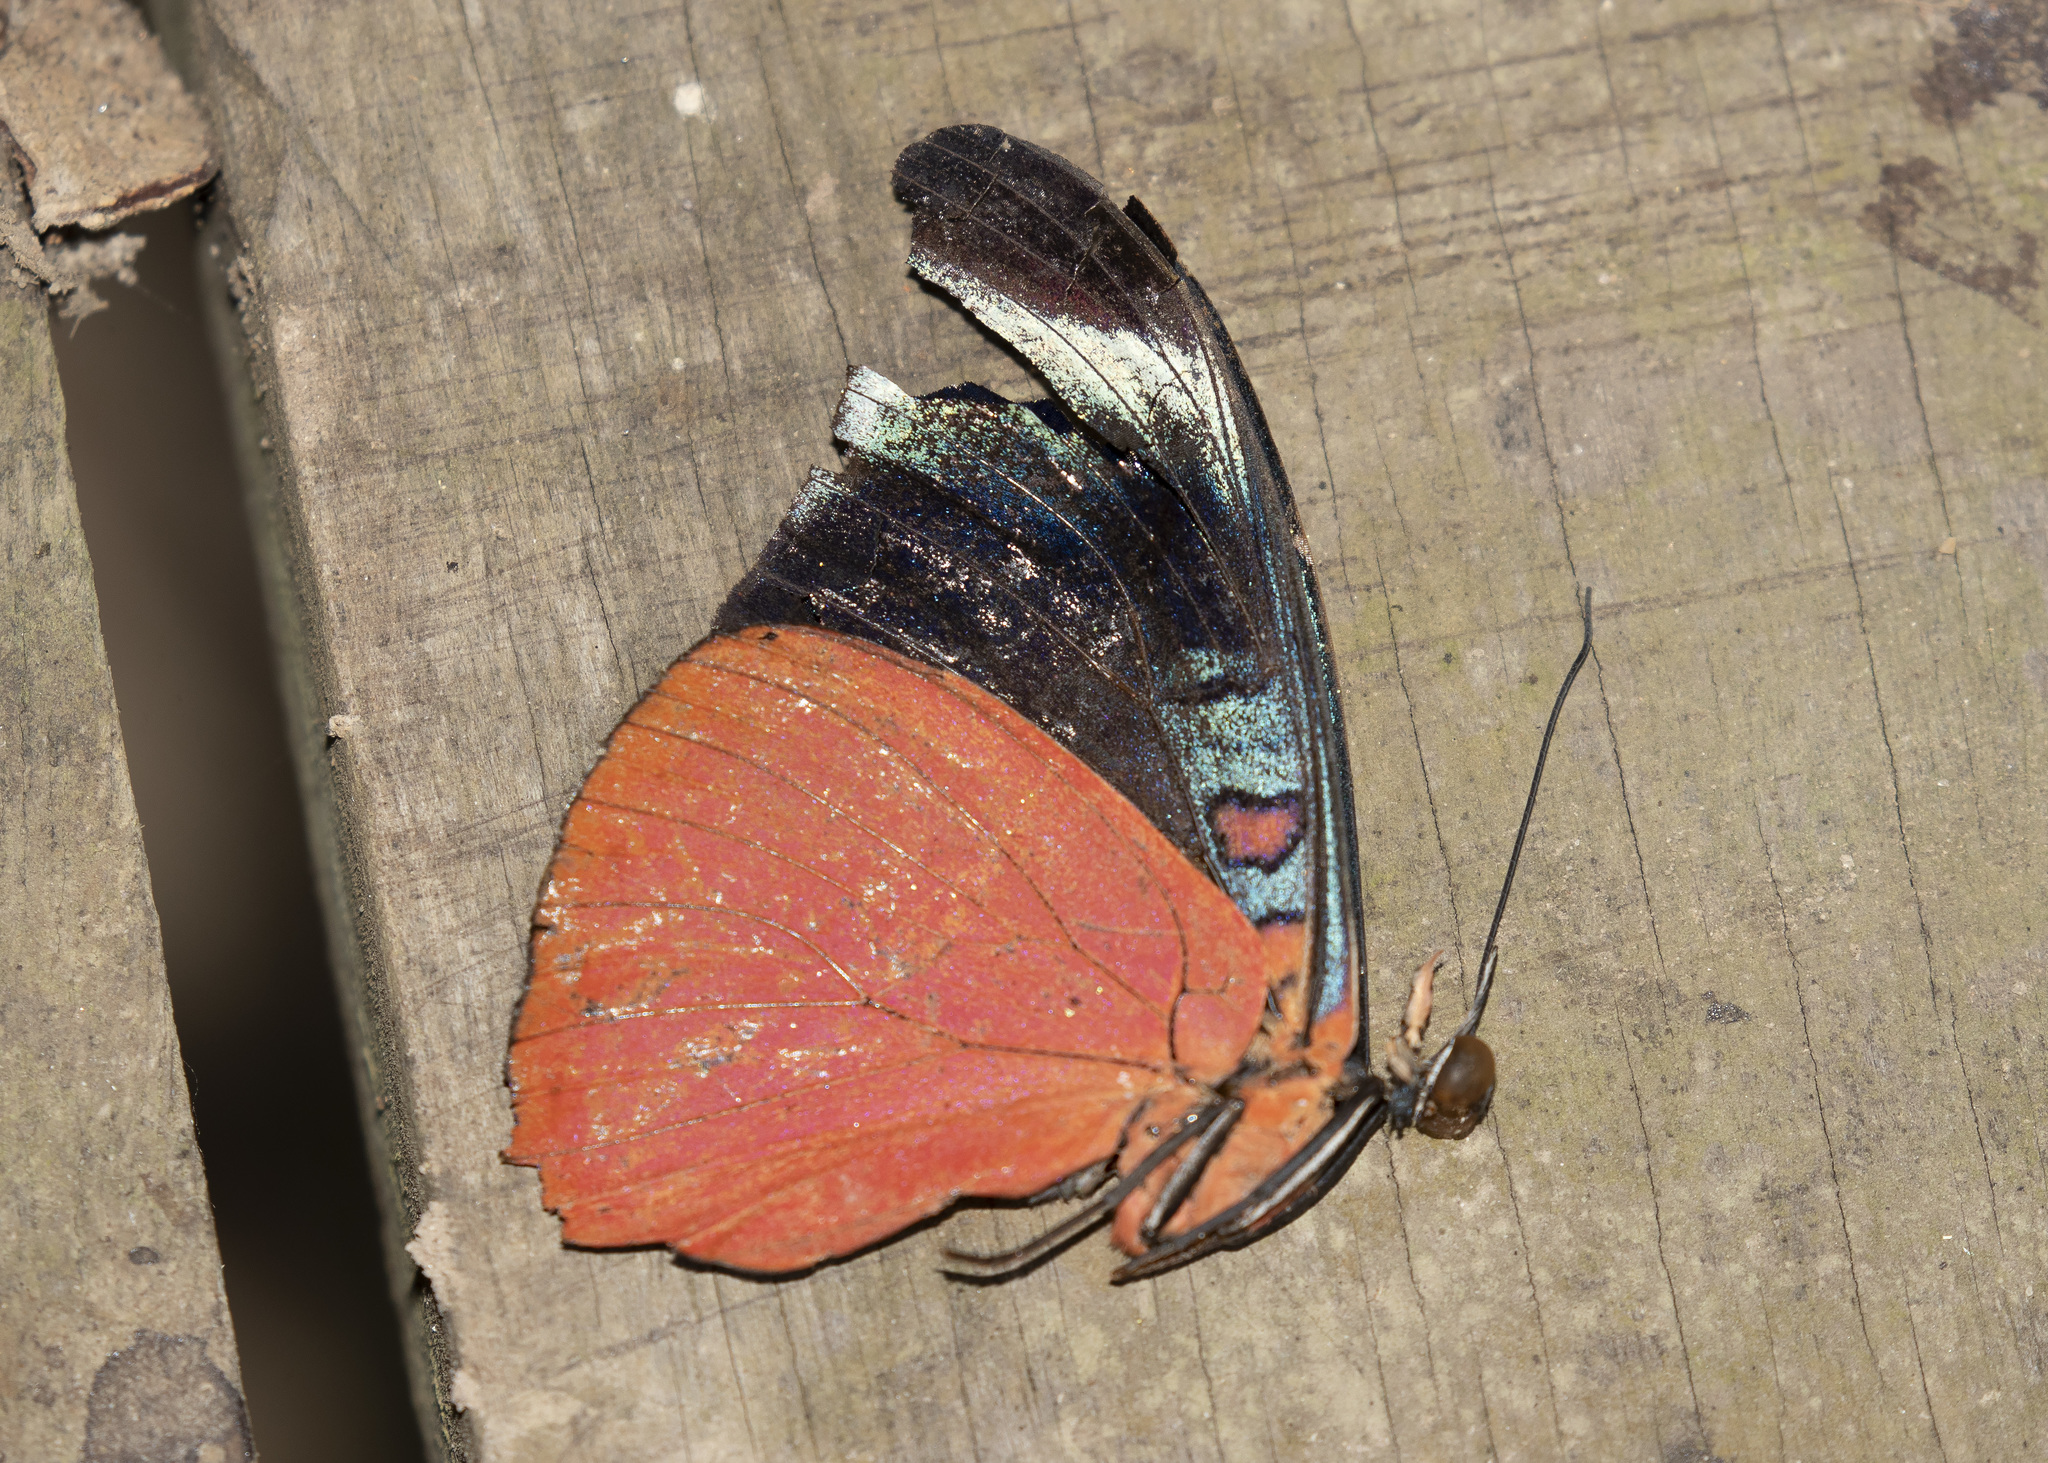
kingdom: Animalia
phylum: Arthropoda
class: Insecta
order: Lepidoptera
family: Nymphalidae
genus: Panacea
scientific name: Panacea prola
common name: Red flasher
